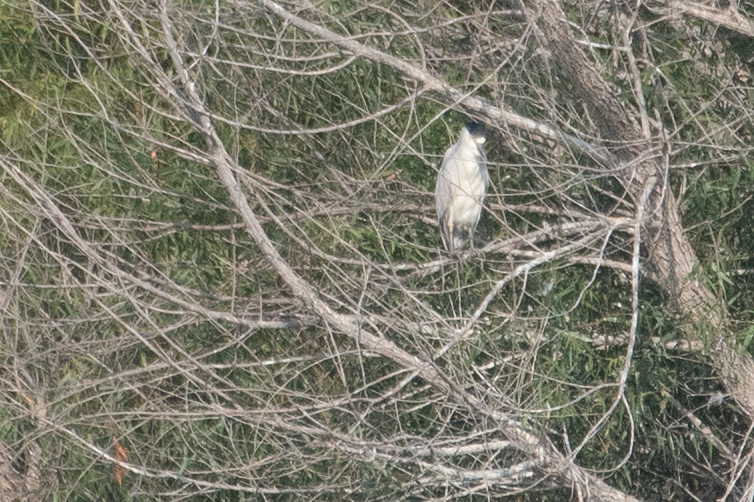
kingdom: Animalia
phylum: Chordata
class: Aves
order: Pelecaniformes
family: Ardeidae
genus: Nycticorax
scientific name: Nycticorax nycticorax
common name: Black-crowned night heron
